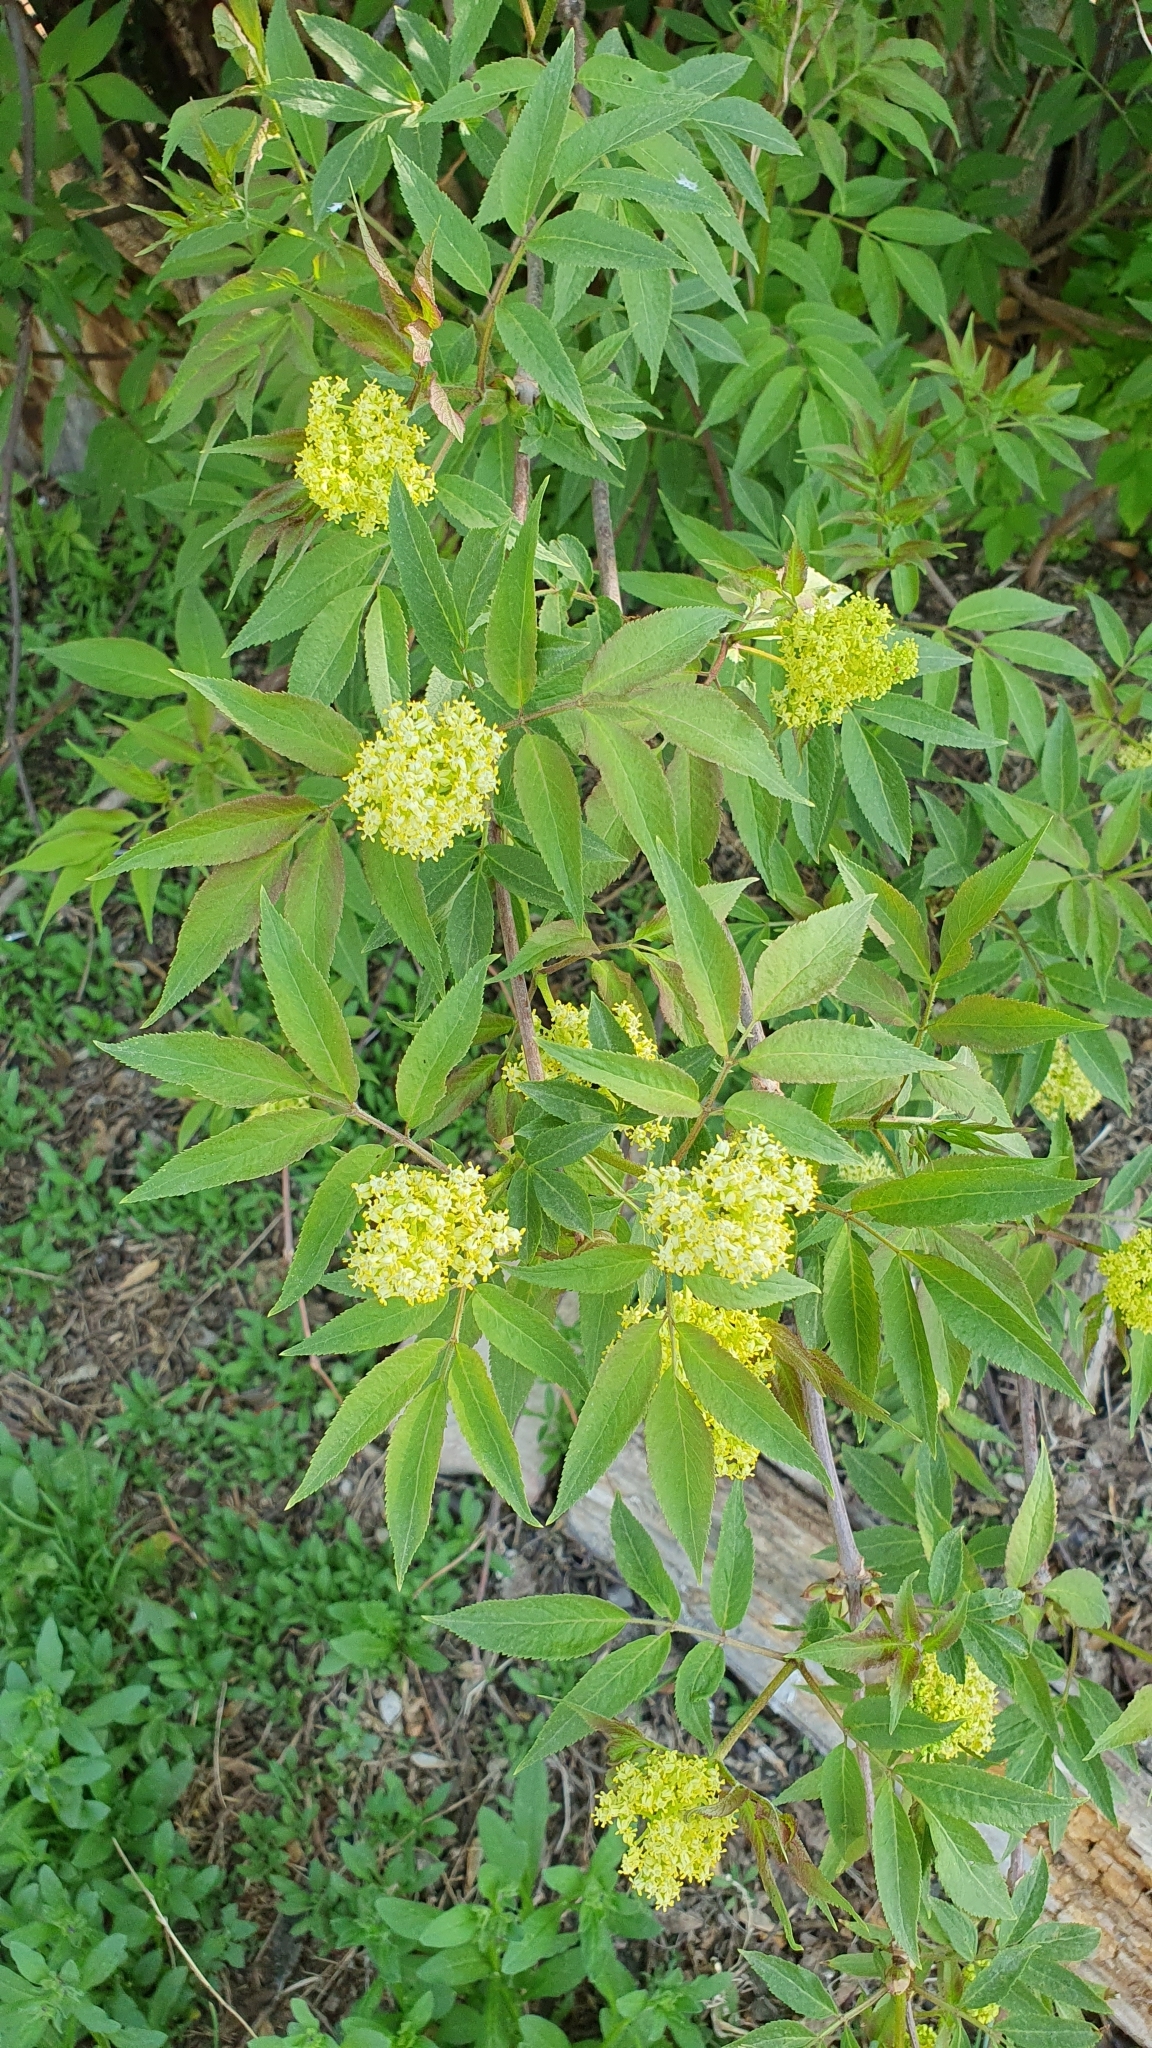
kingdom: Plantae
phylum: Tracheophyta
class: Magnoliopsida
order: Dipsacales
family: Viburnaceae
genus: Sambucus
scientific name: Sambucus racemosa
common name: Red-berried elder
